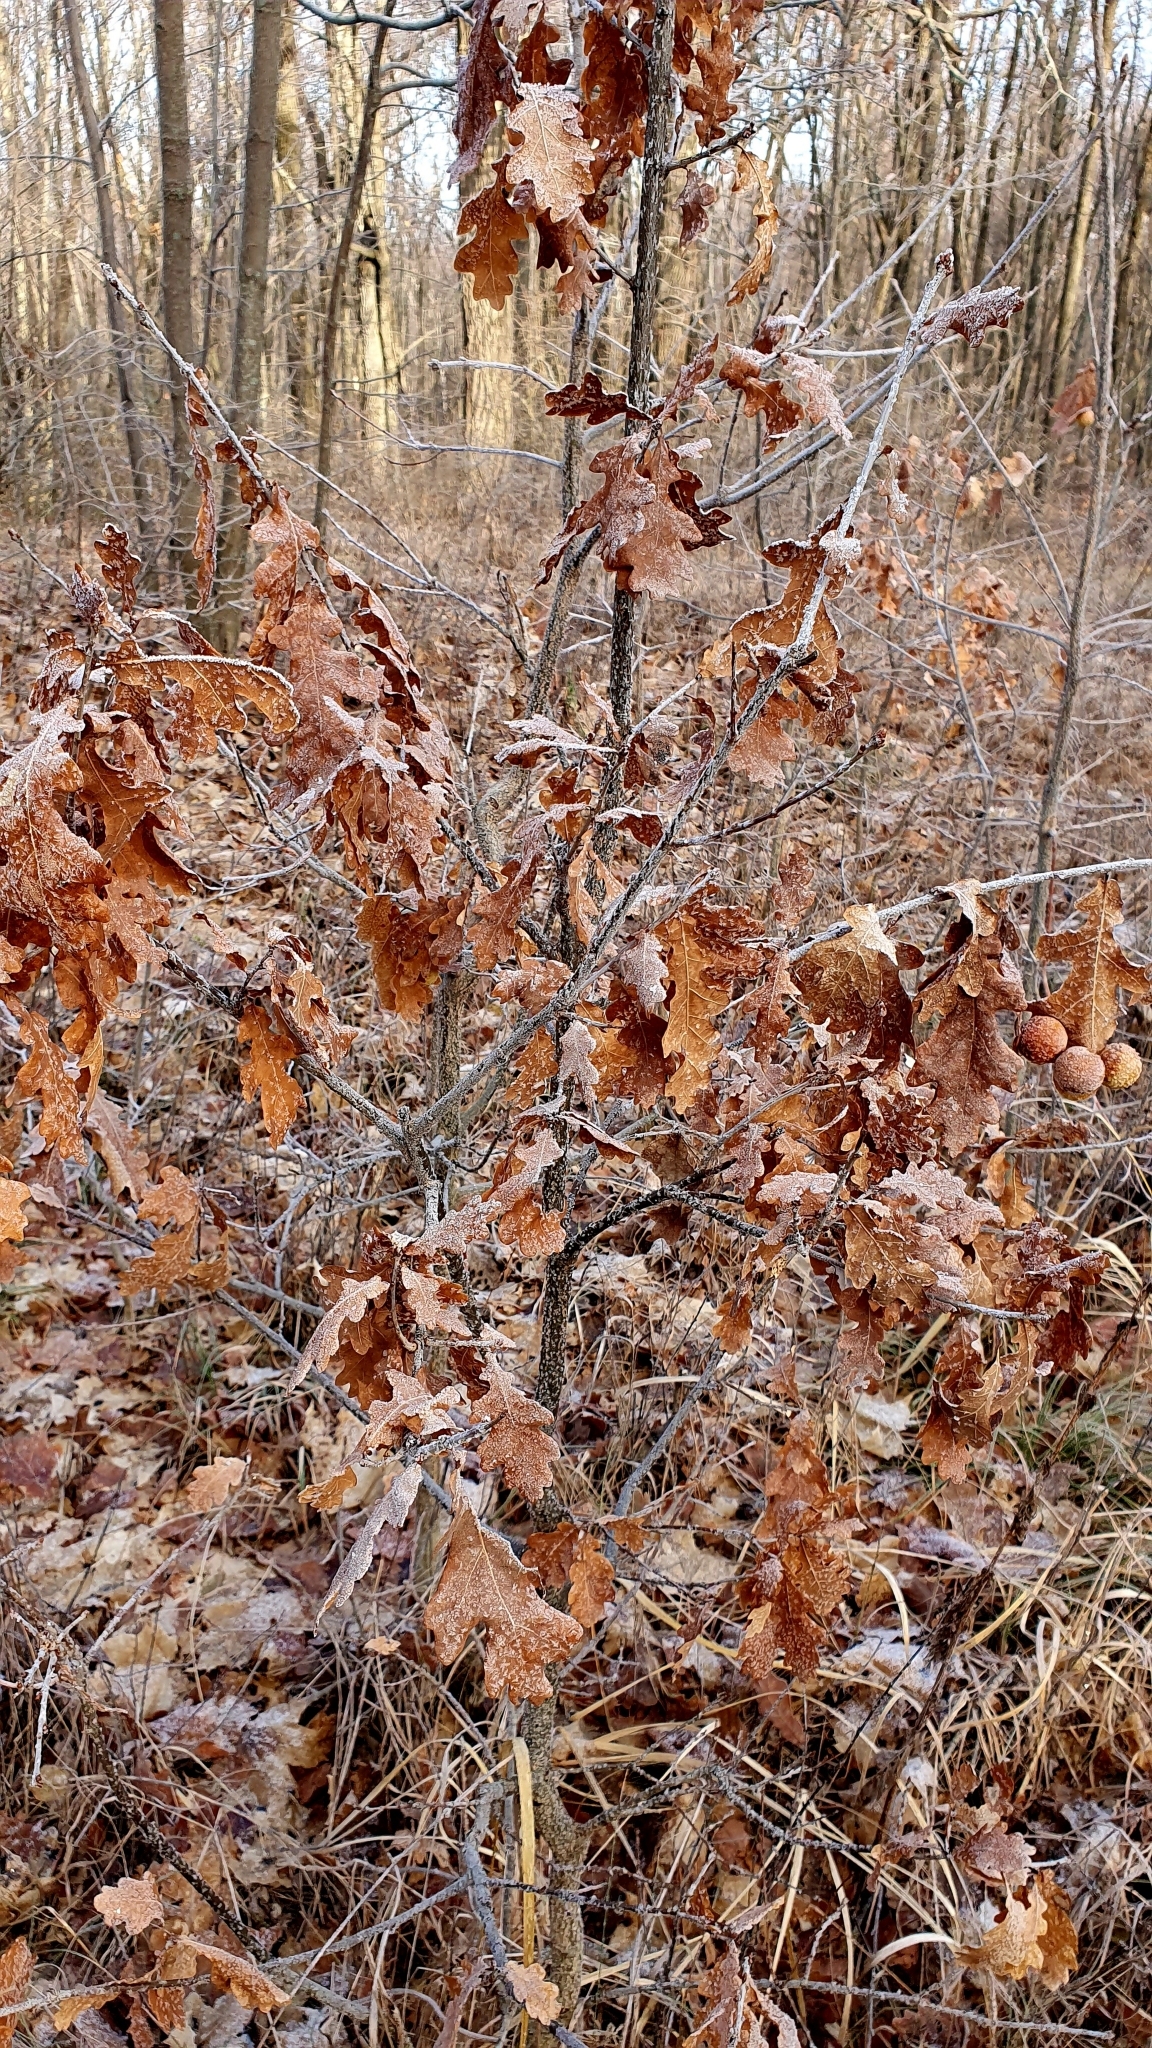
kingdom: Plantae
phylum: Tracheophyta
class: Magnoliopsida
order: Fagales
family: Fagaceae
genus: Quercus
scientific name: Quercus robur
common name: Pedunculate oak
